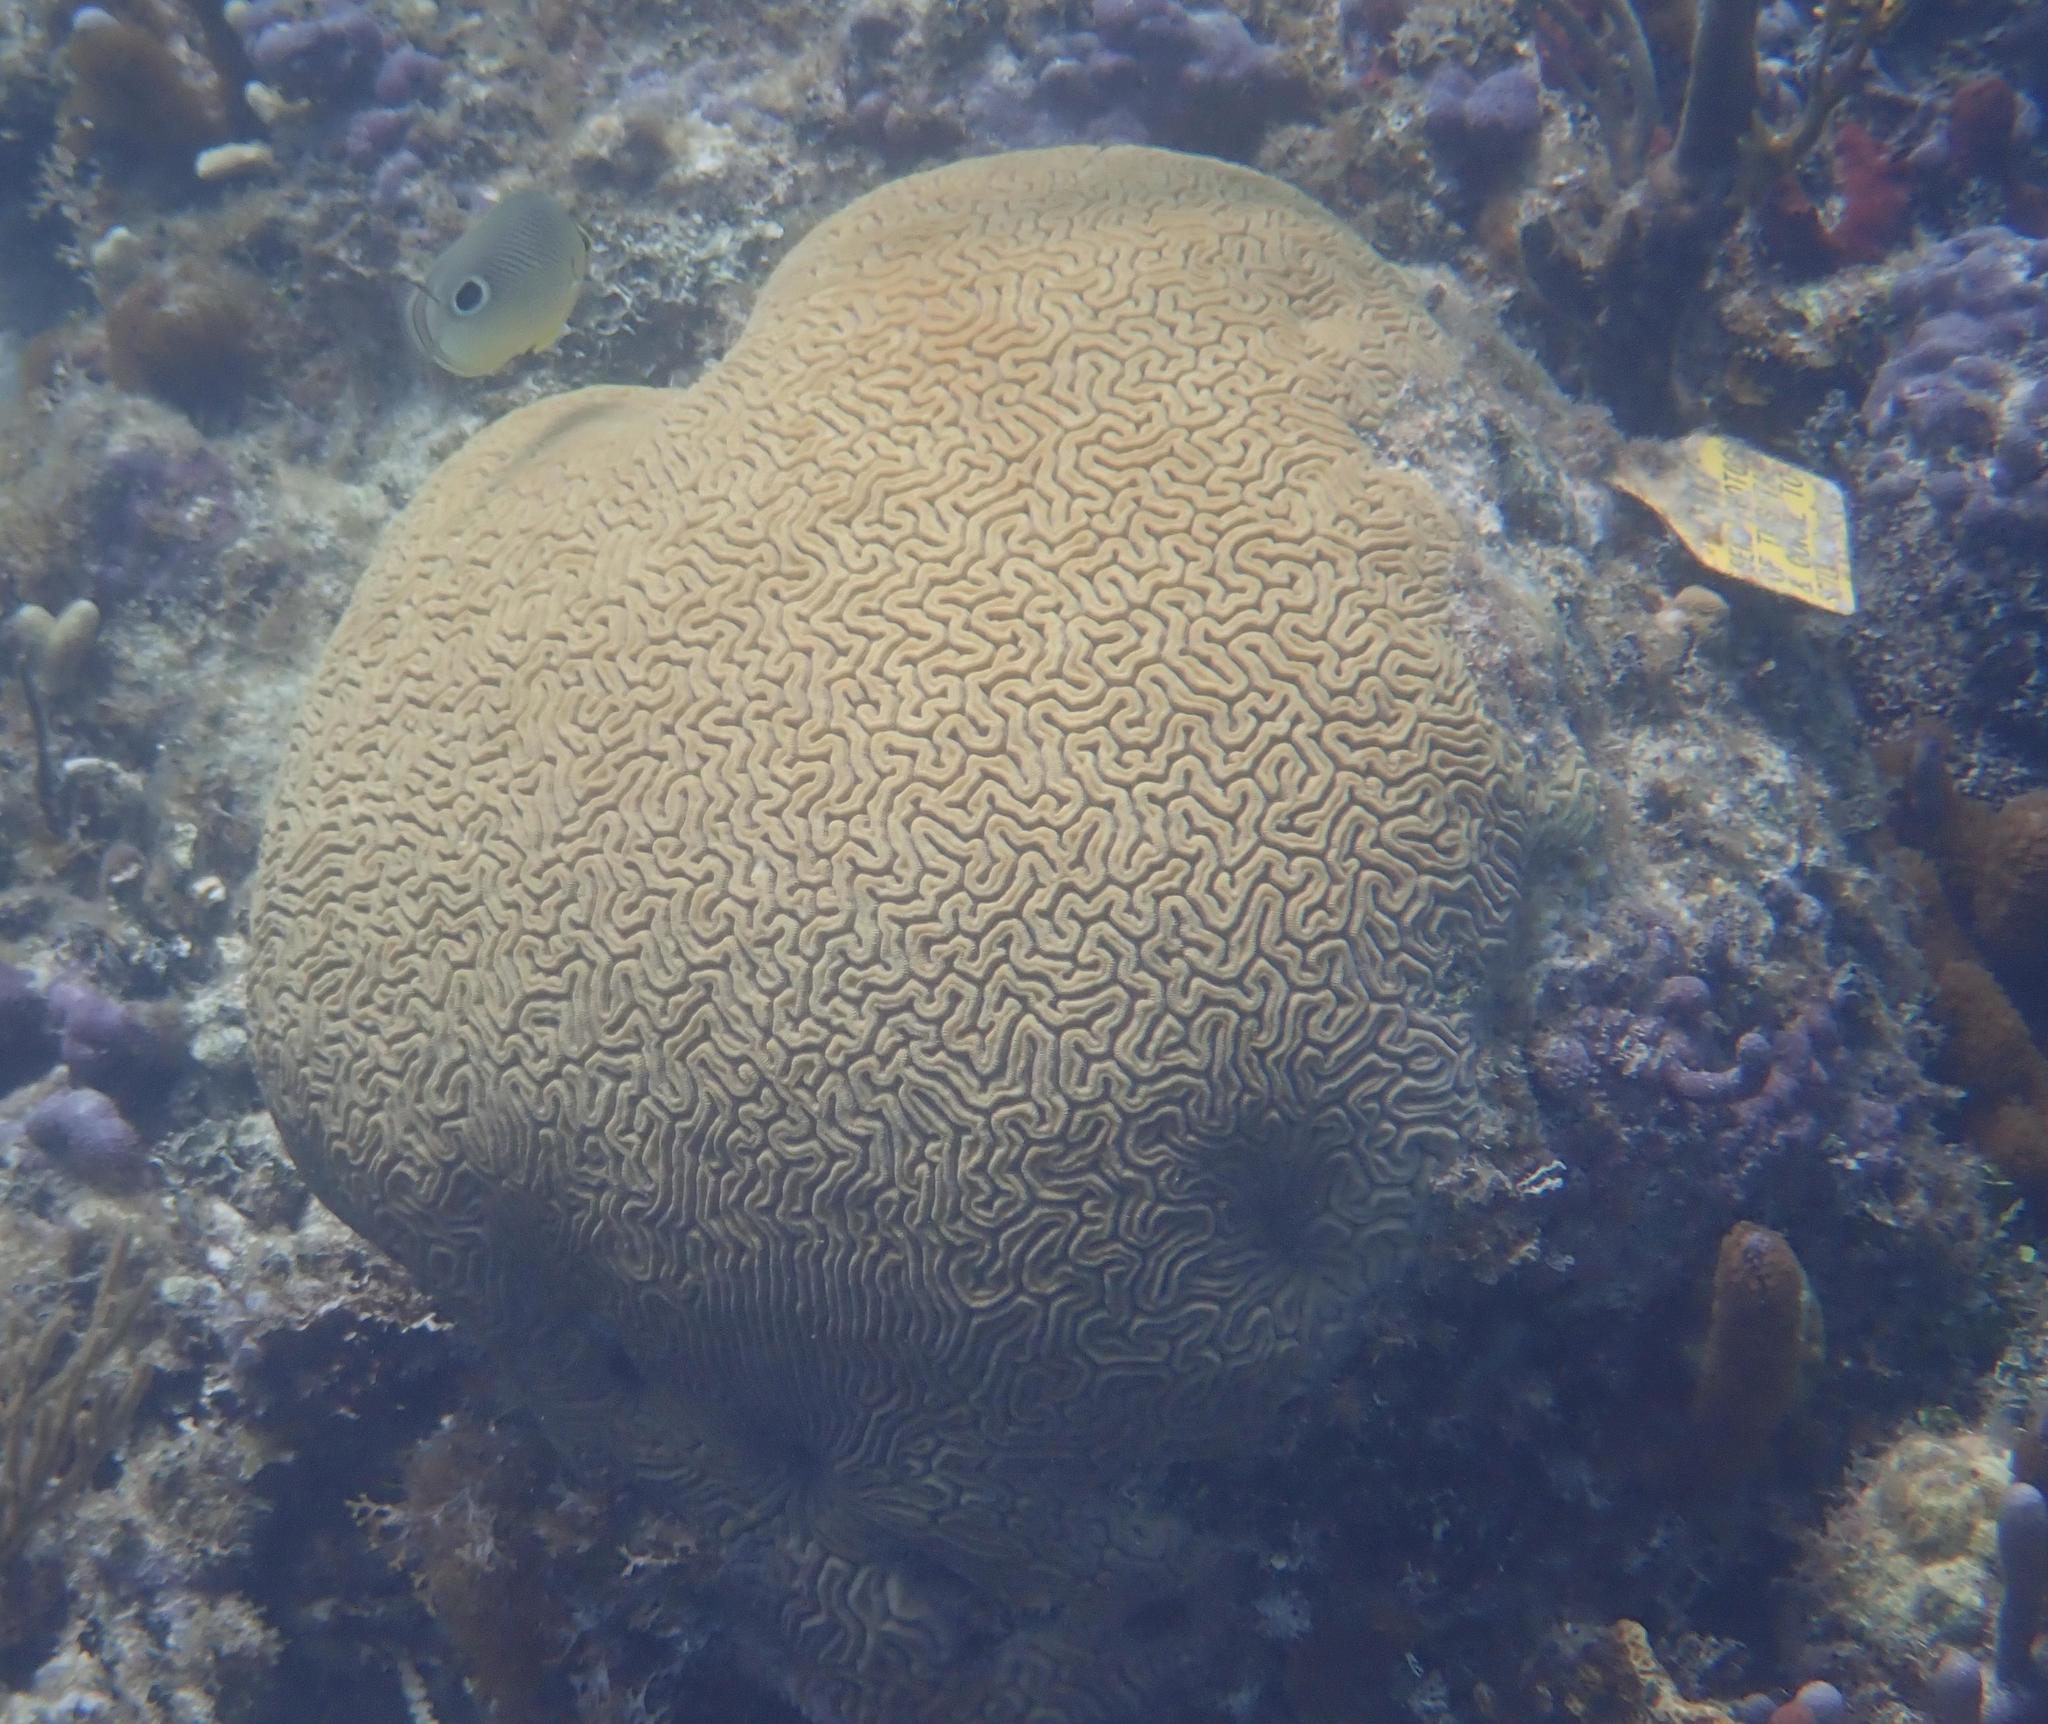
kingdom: Animalia
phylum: Cnidaria
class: Anthozoa
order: Scleractinia
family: Faviidae
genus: Diploria
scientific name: Diploria labyrinthiformis
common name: Grooved brain coral
